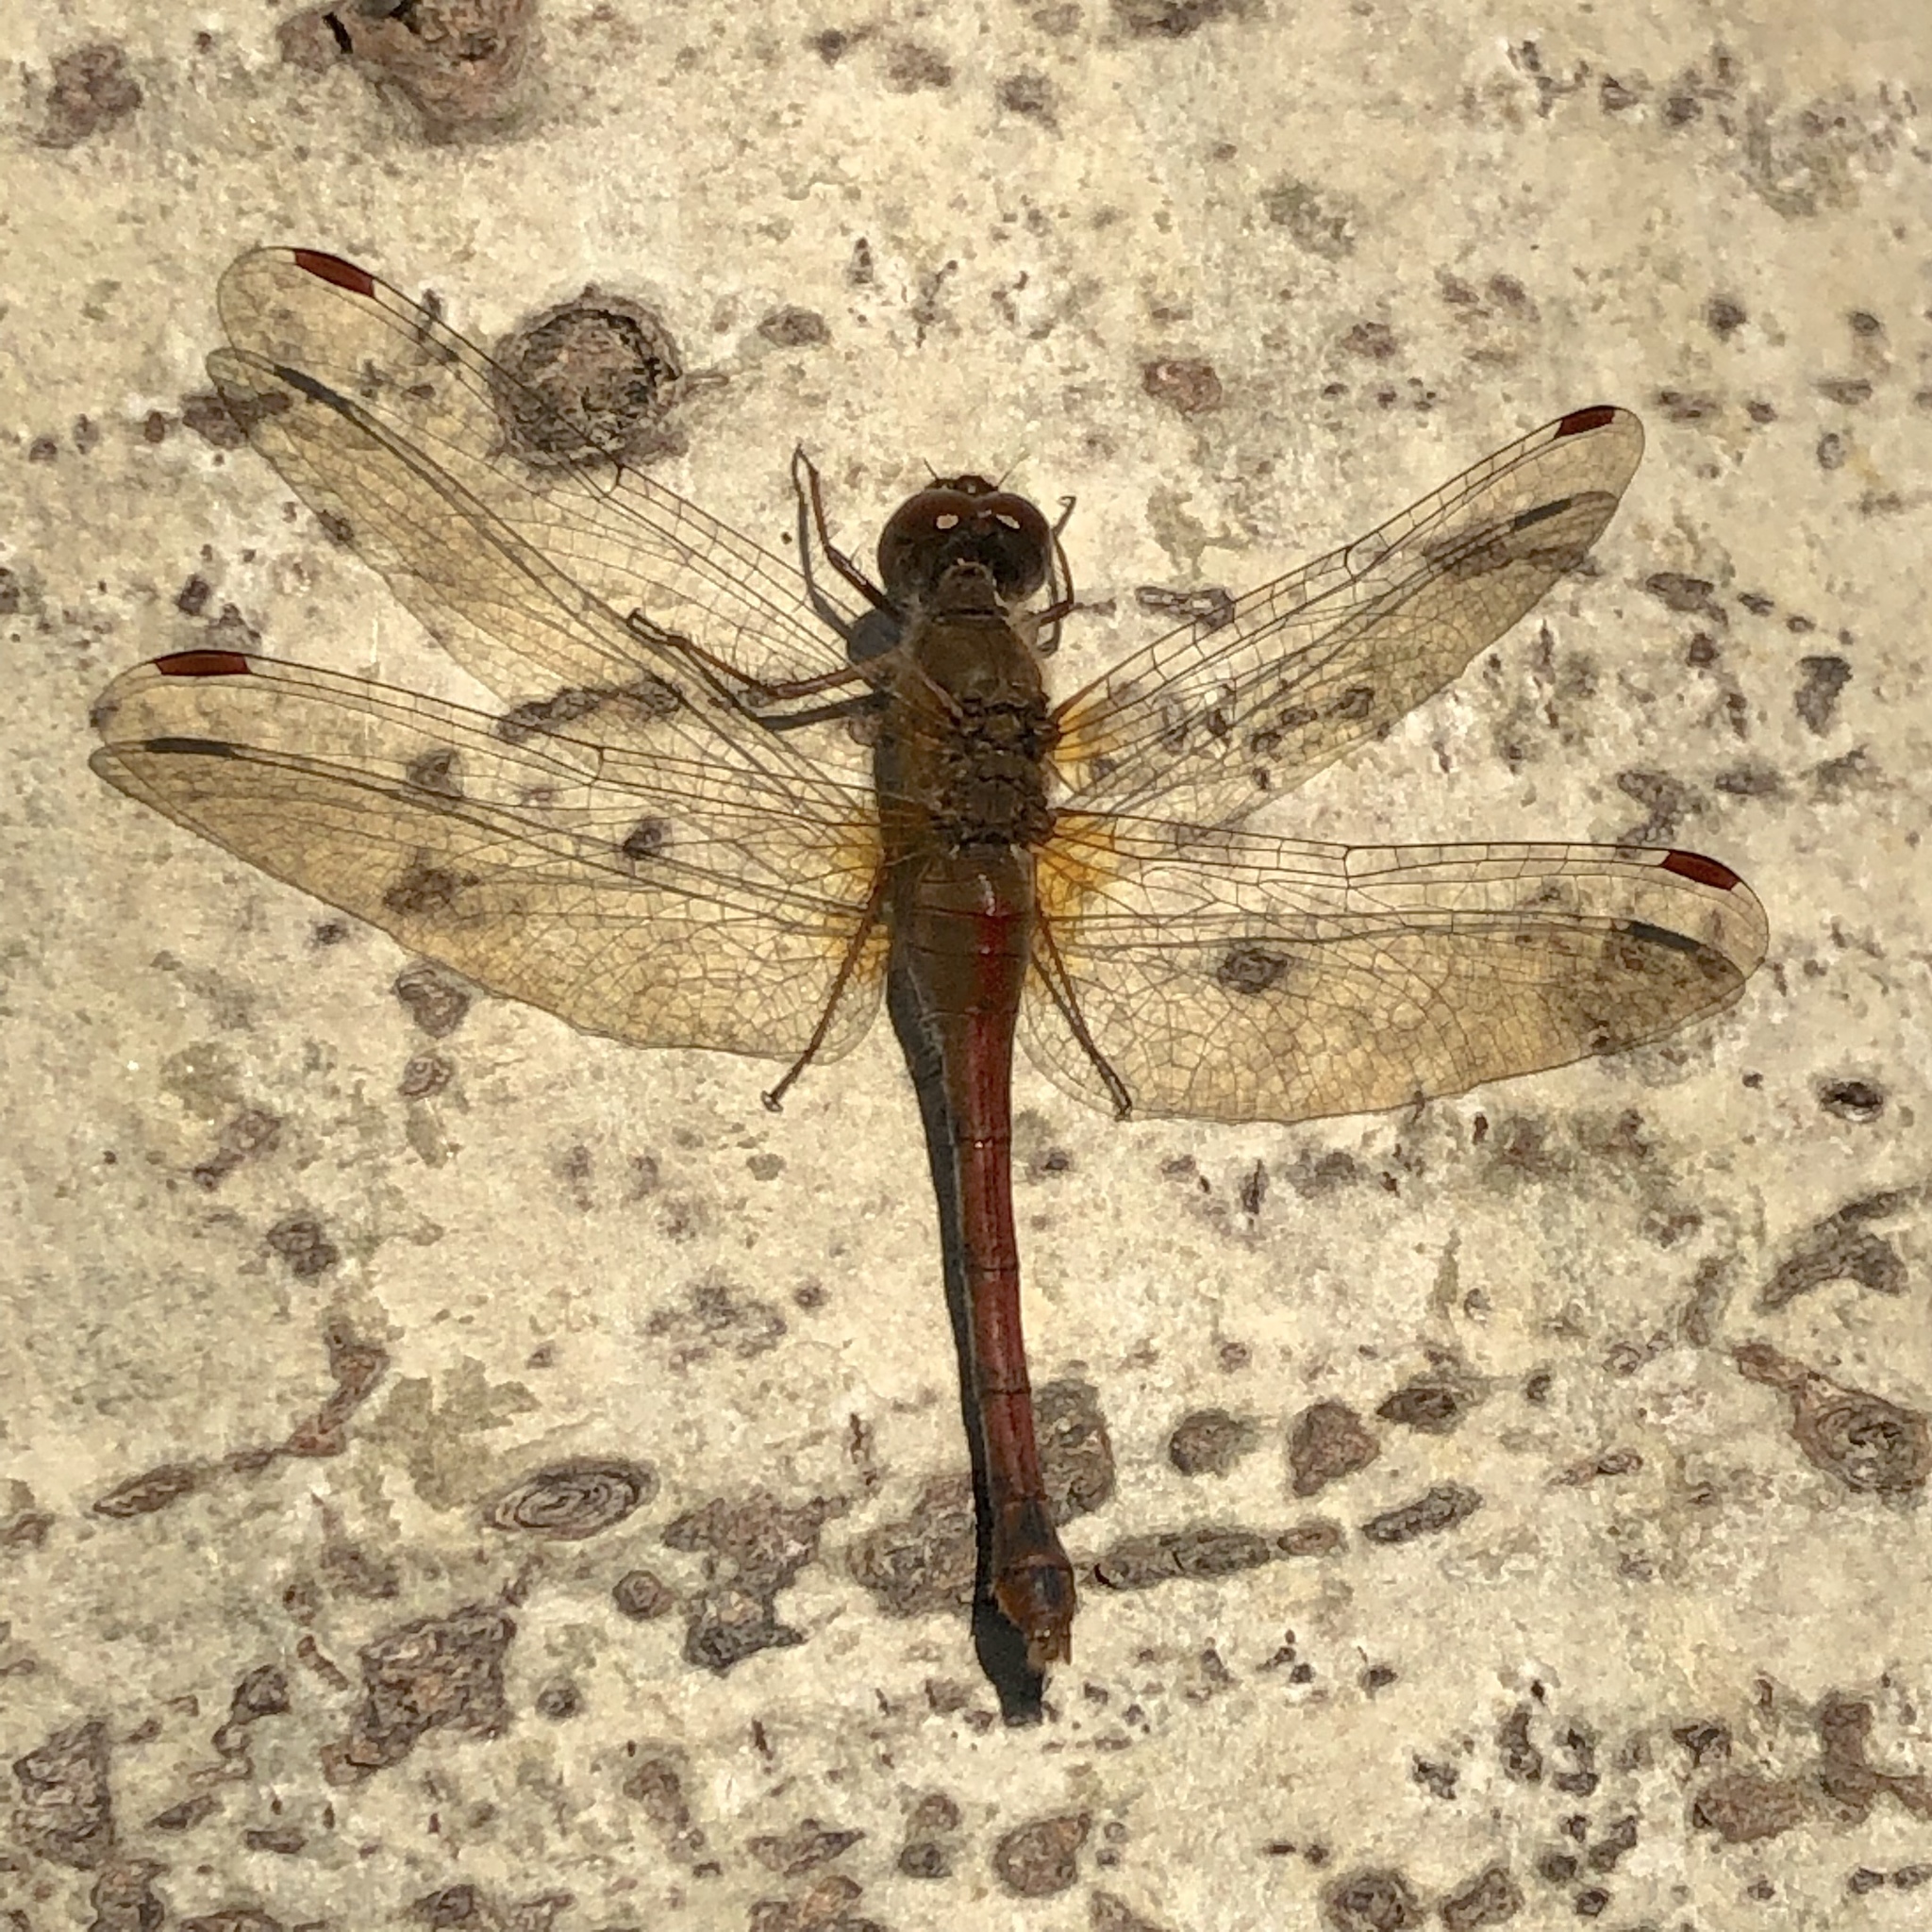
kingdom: Animalia
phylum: Arthropoda
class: Insecta
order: Odonata
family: Libellulidae
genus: Sympetrum
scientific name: Sympetrum vicinum
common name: Autumn meadowhawk
